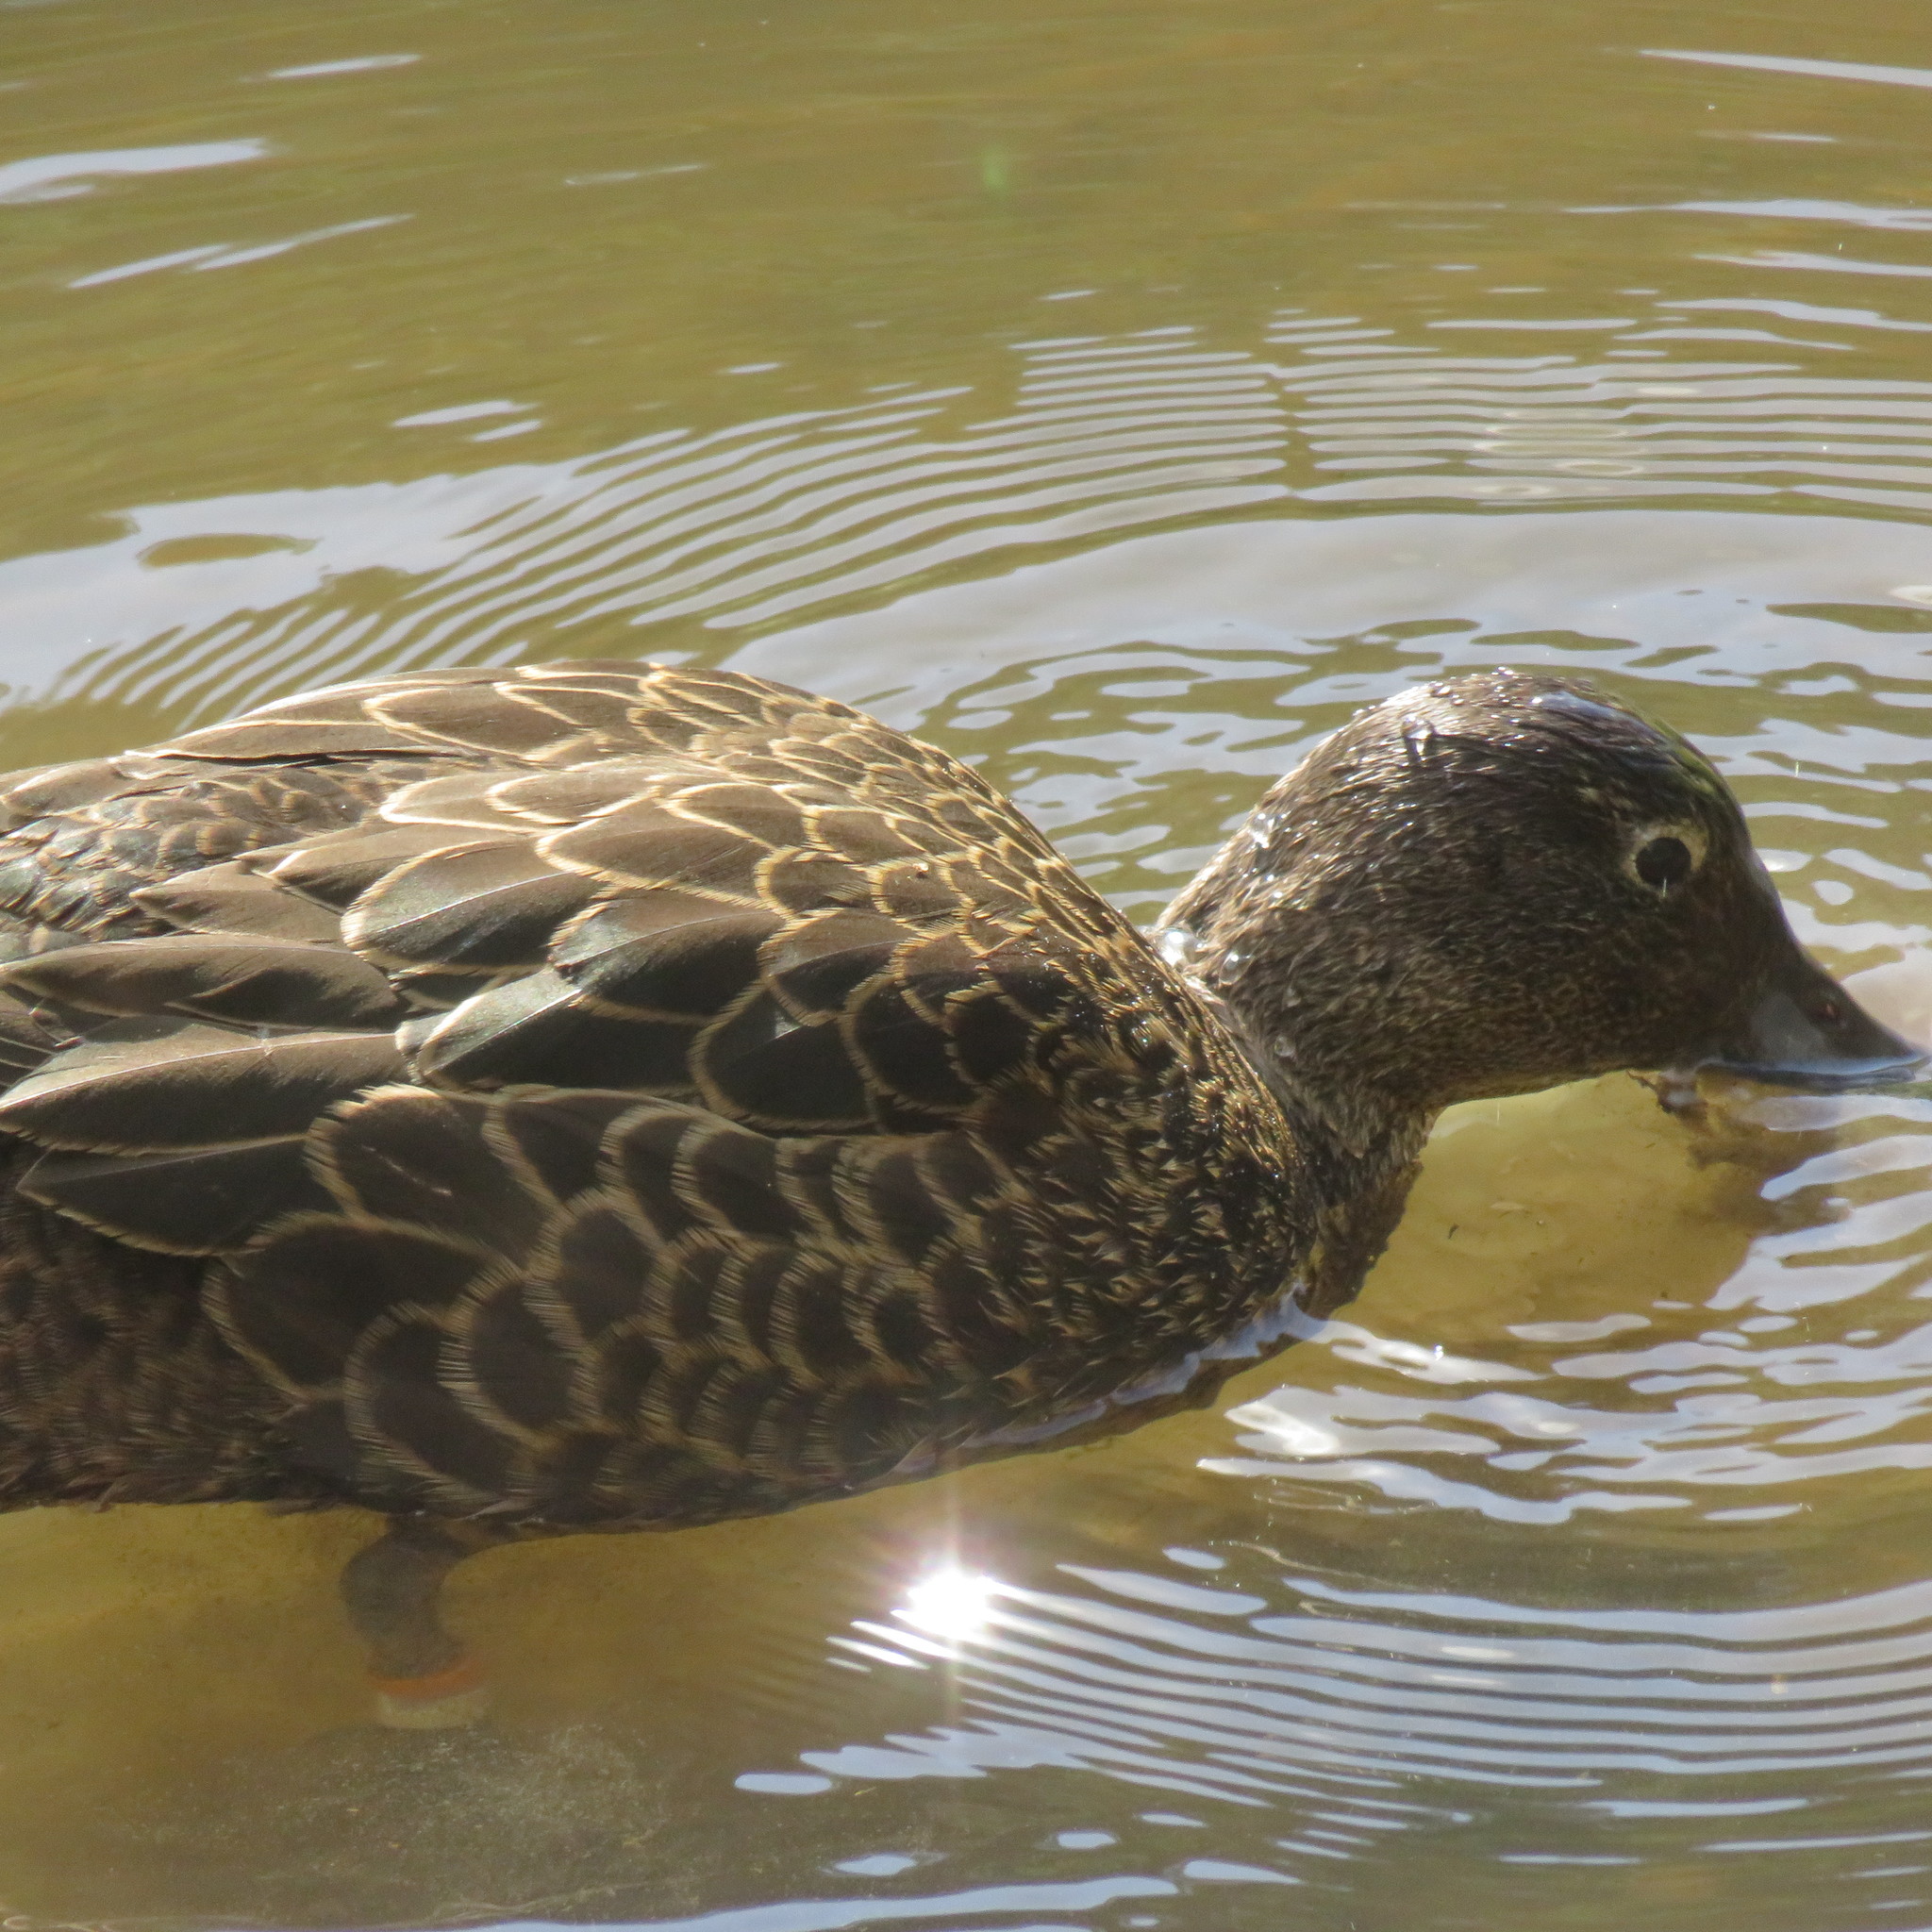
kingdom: Animalia
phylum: Chordata
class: Aves
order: Anseriformes
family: Anatidae
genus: Anas
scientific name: Anas chlorotis
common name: Brown teal
